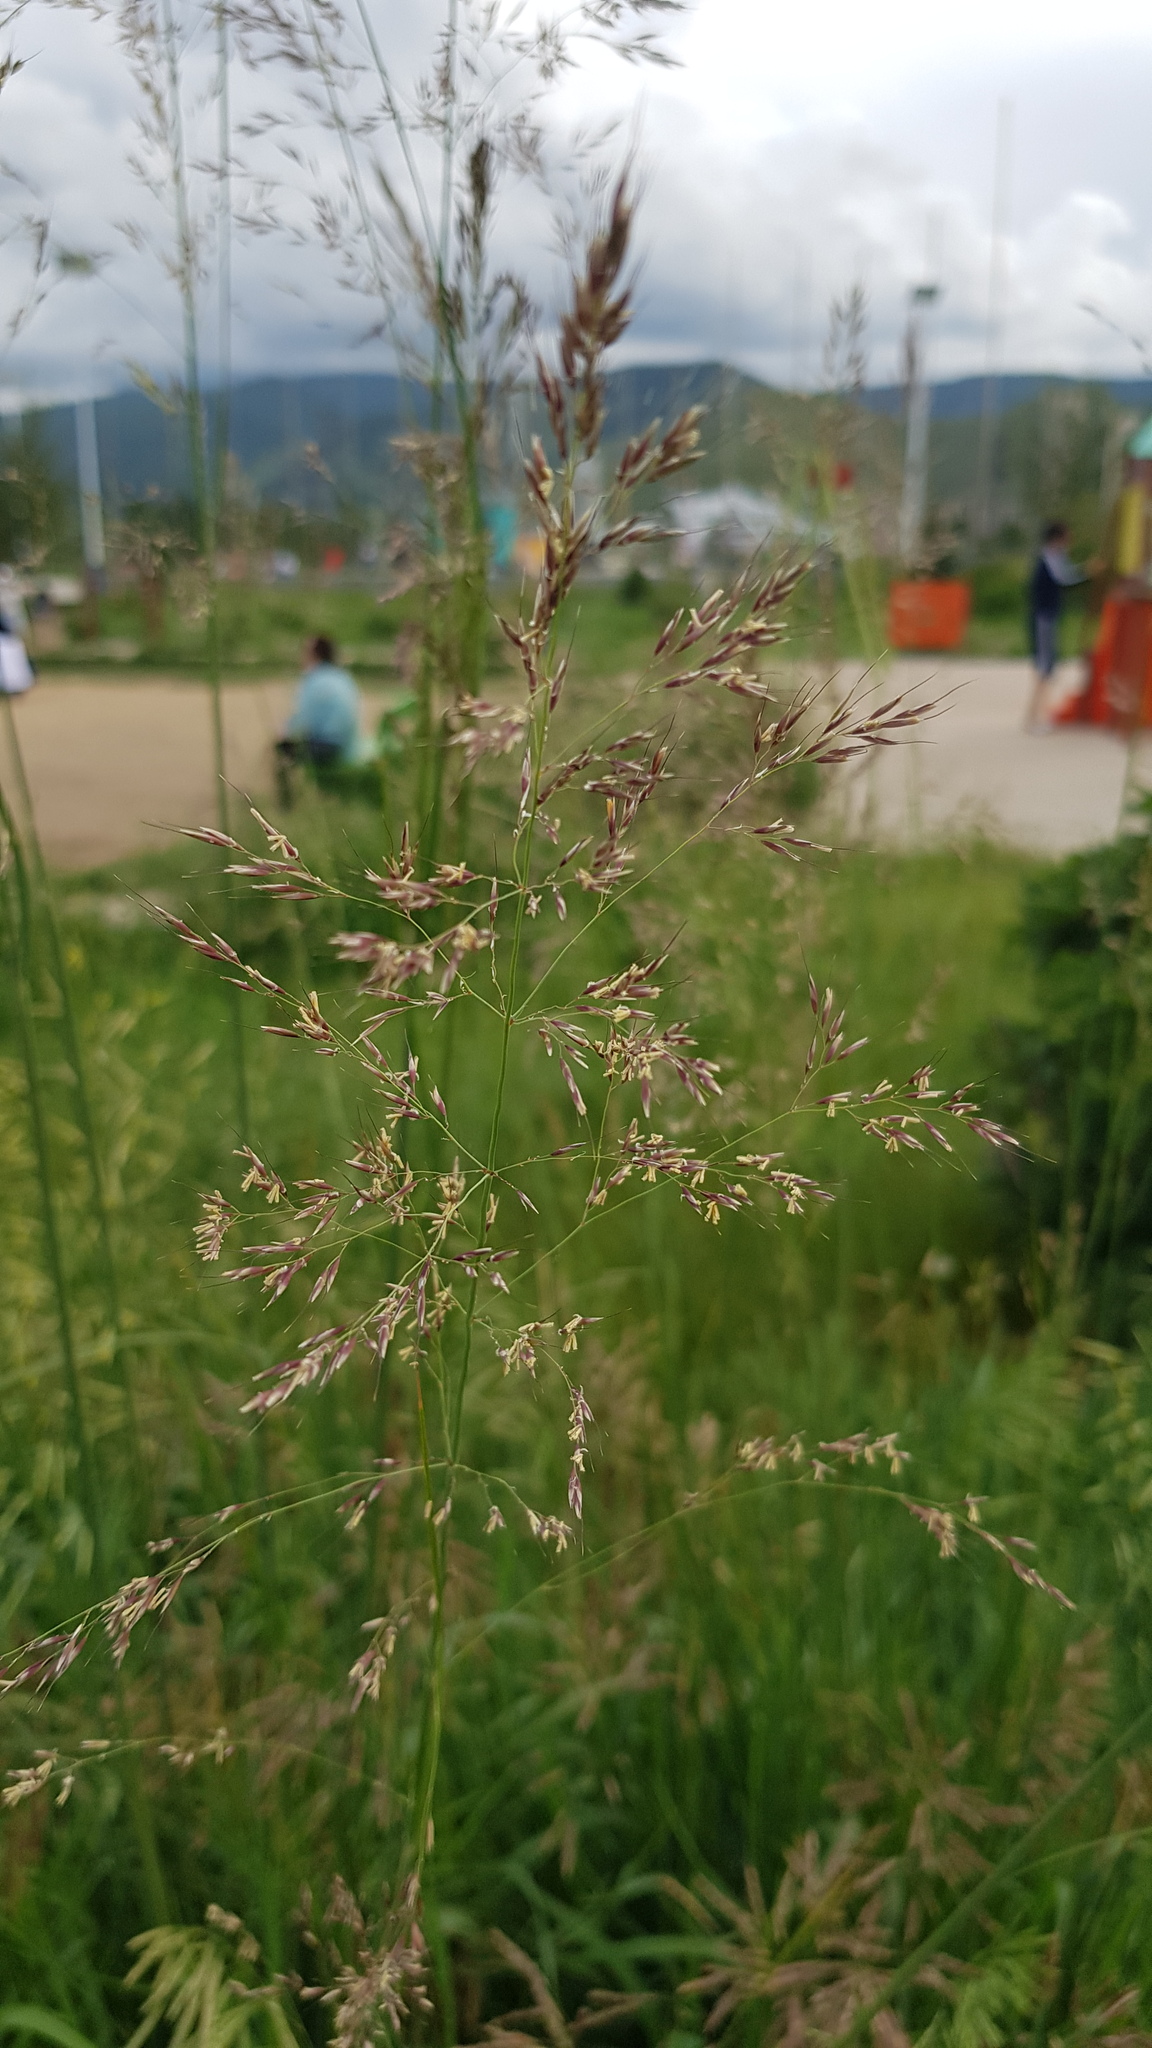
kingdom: Plantae
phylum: Tracheophyta
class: Liliopsida
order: Poales
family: Poaceae
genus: Agrostis
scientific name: Agrostis gigantea
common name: Black bent
